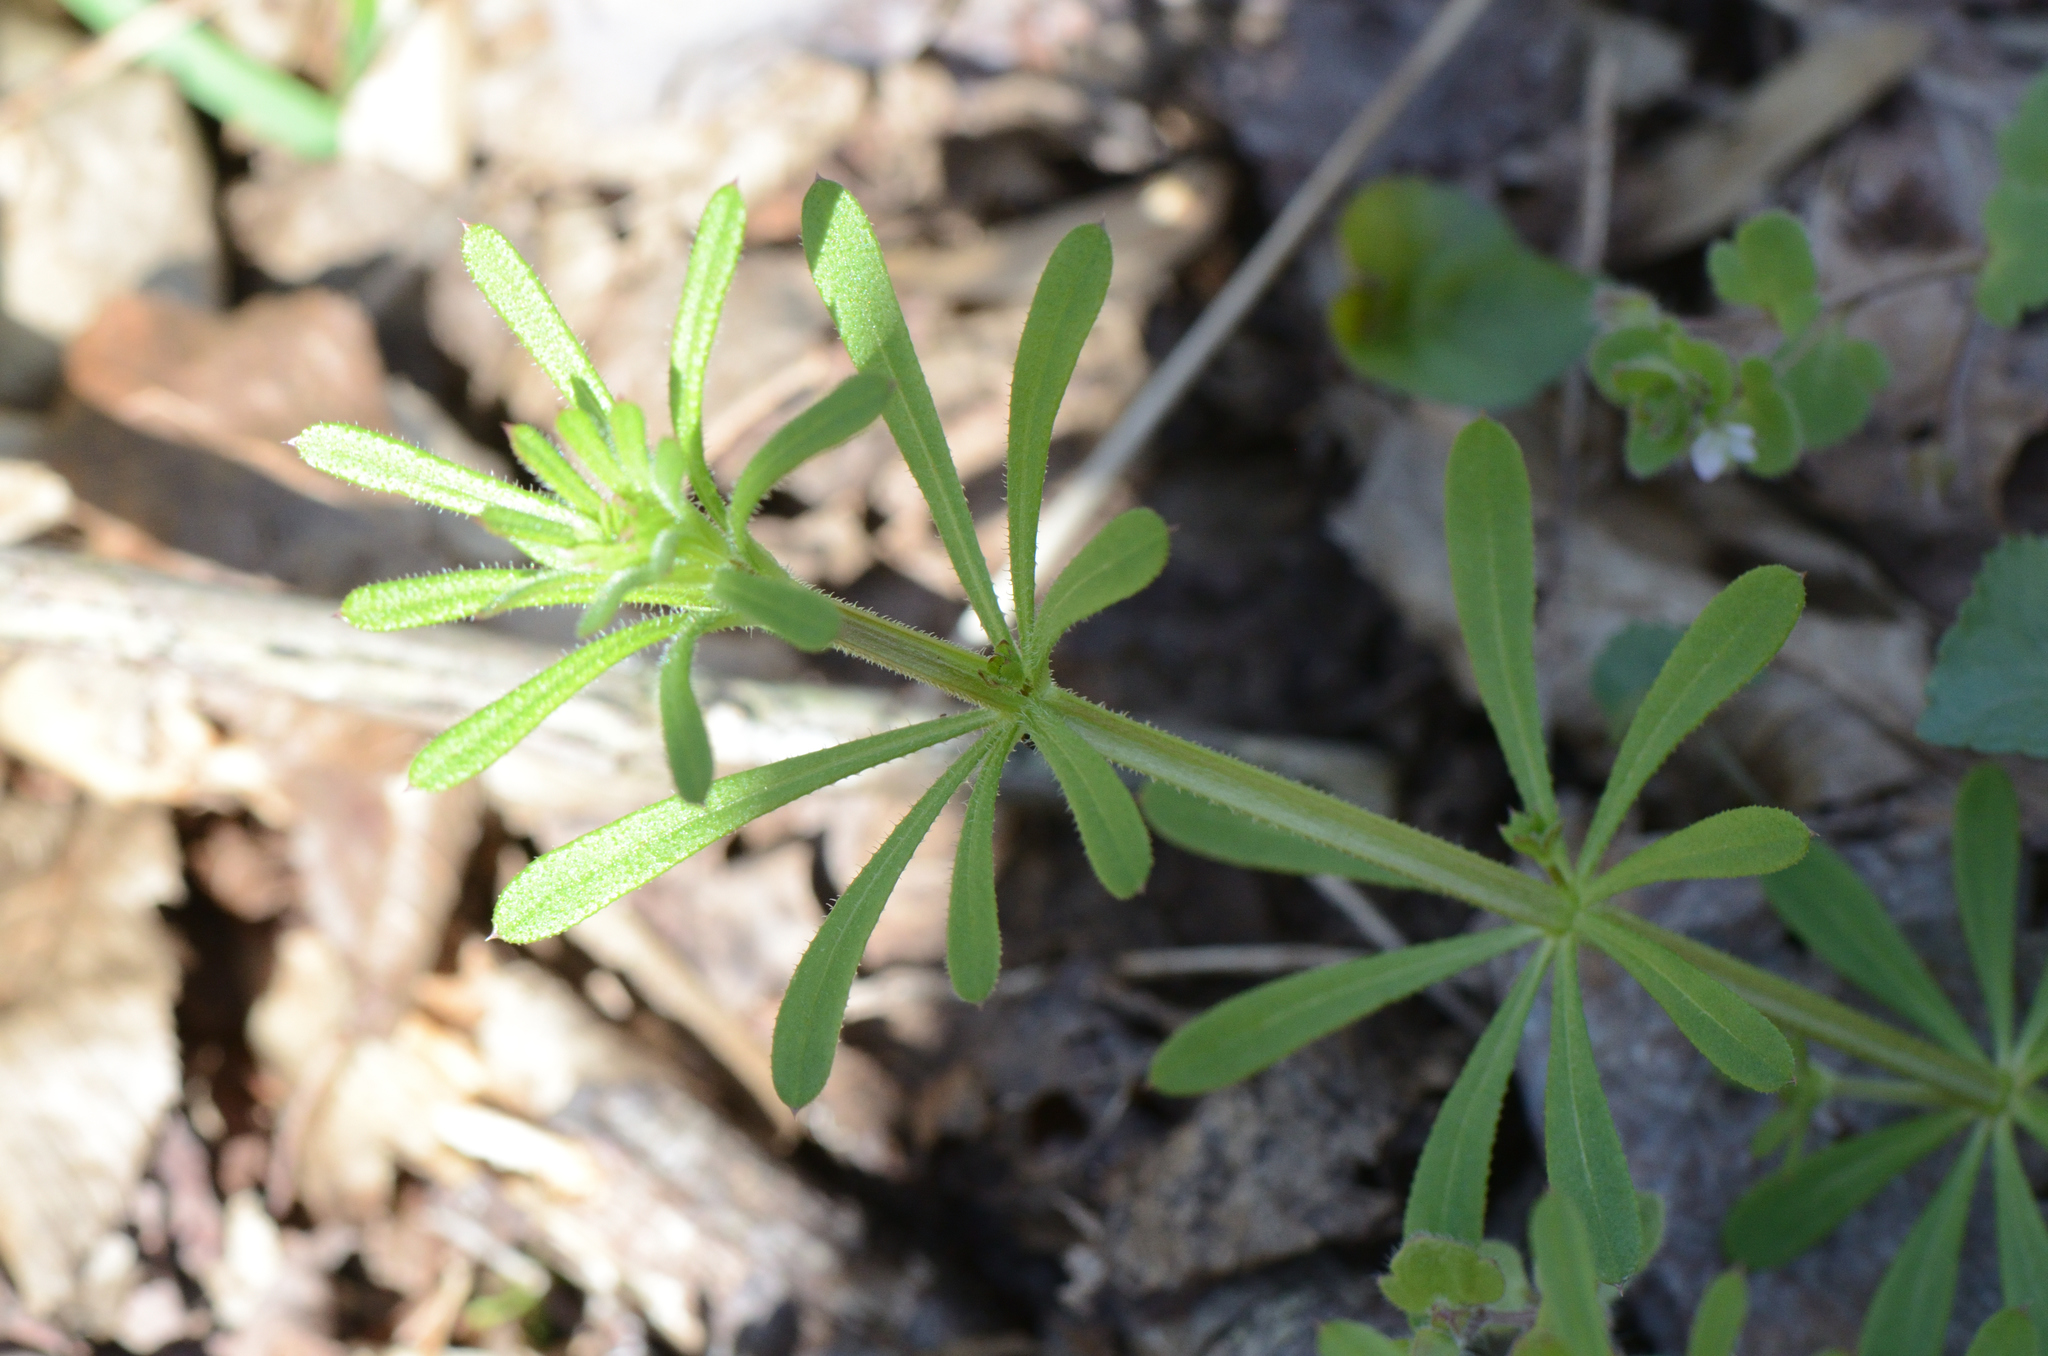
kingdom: Plantae
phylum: Tracheophyta
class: Magnoliopsida
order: Gentianales
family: Rubiaceae
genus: Galium
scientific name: Galium aparine
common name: Cleavers
